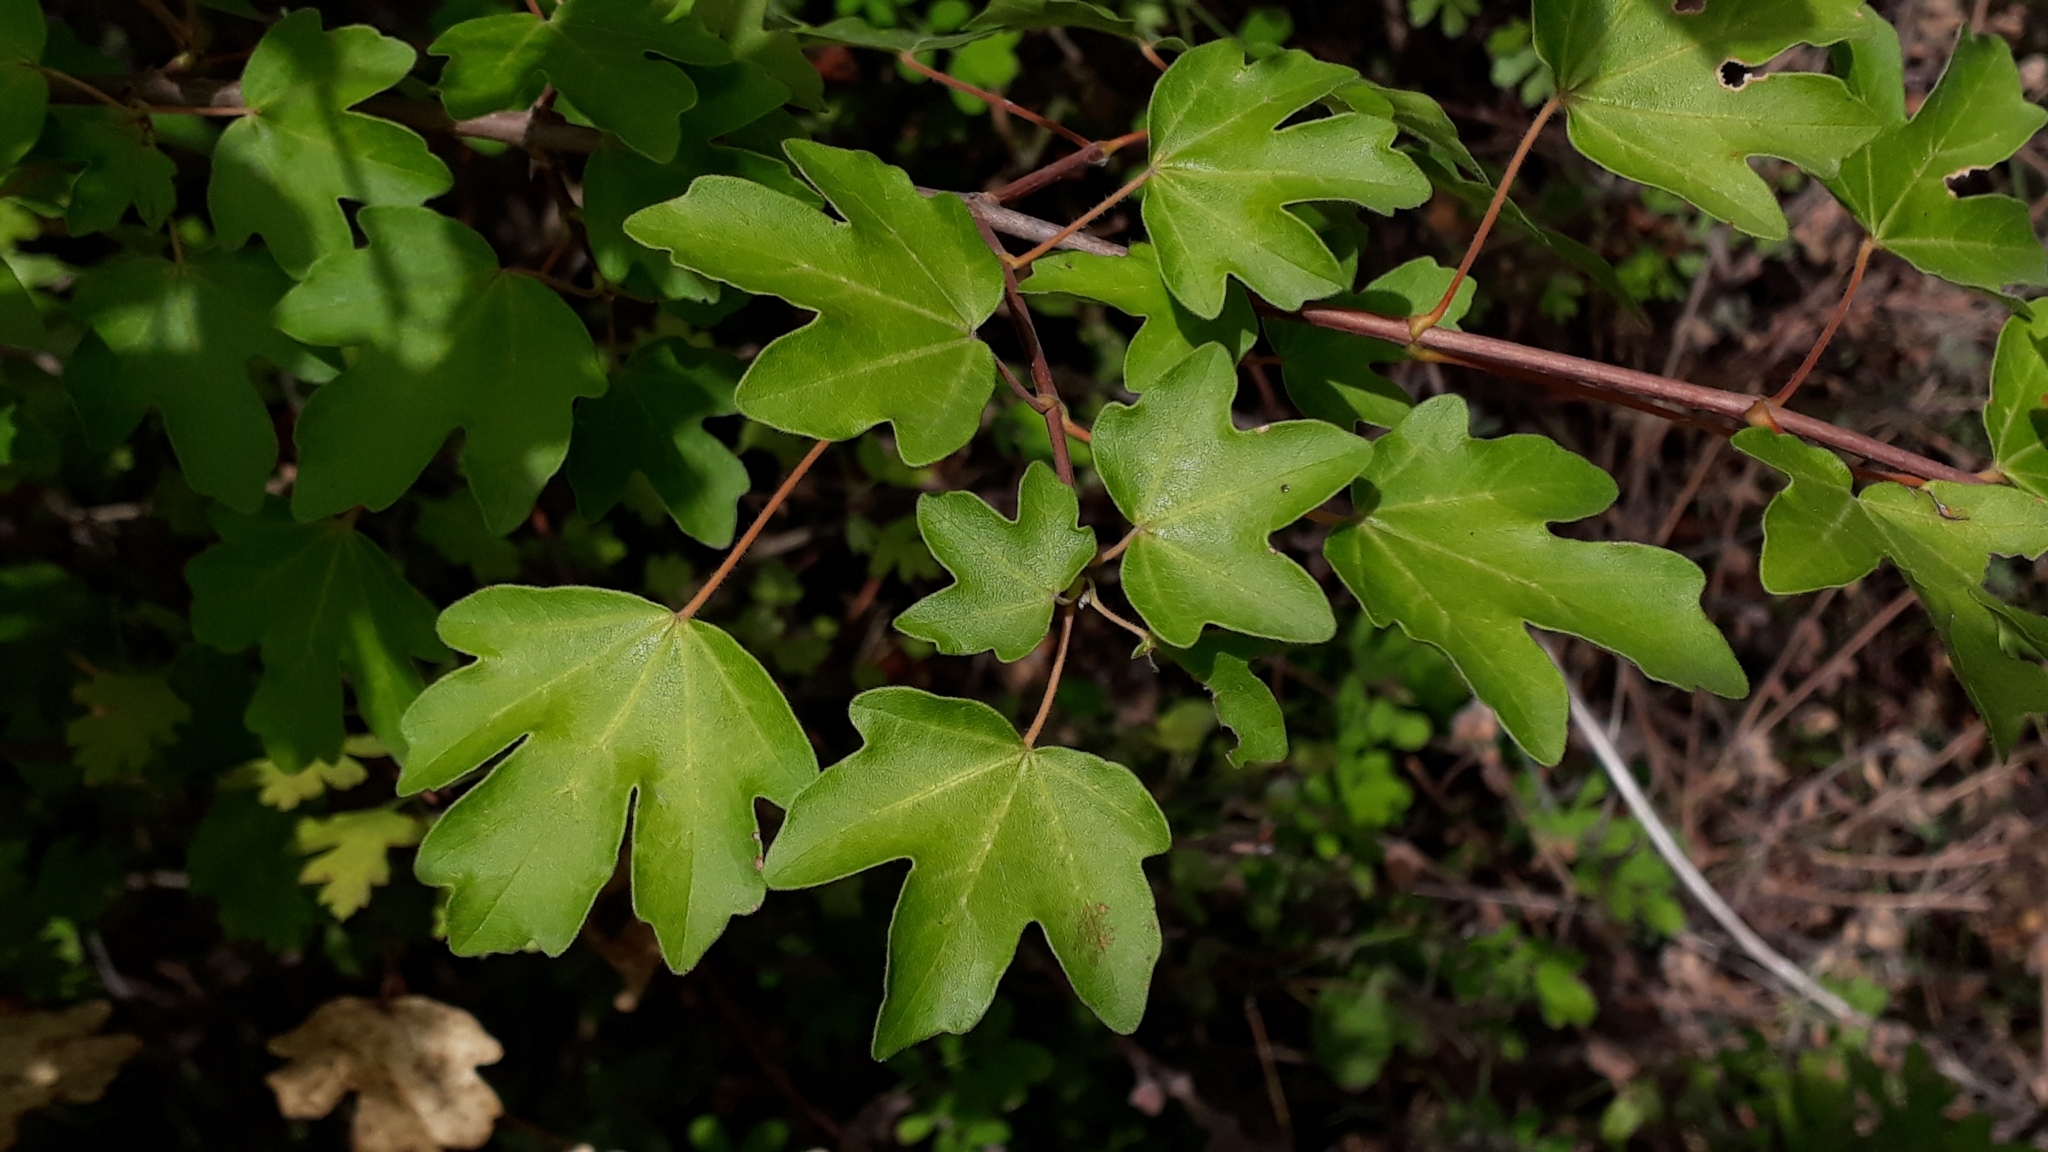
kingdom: Plantae
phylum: Tracheophyta
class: Magnoliopsida
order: Sapindales
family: Sapindaceae
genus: Acer
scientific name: Acer campestre
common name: Field maple
